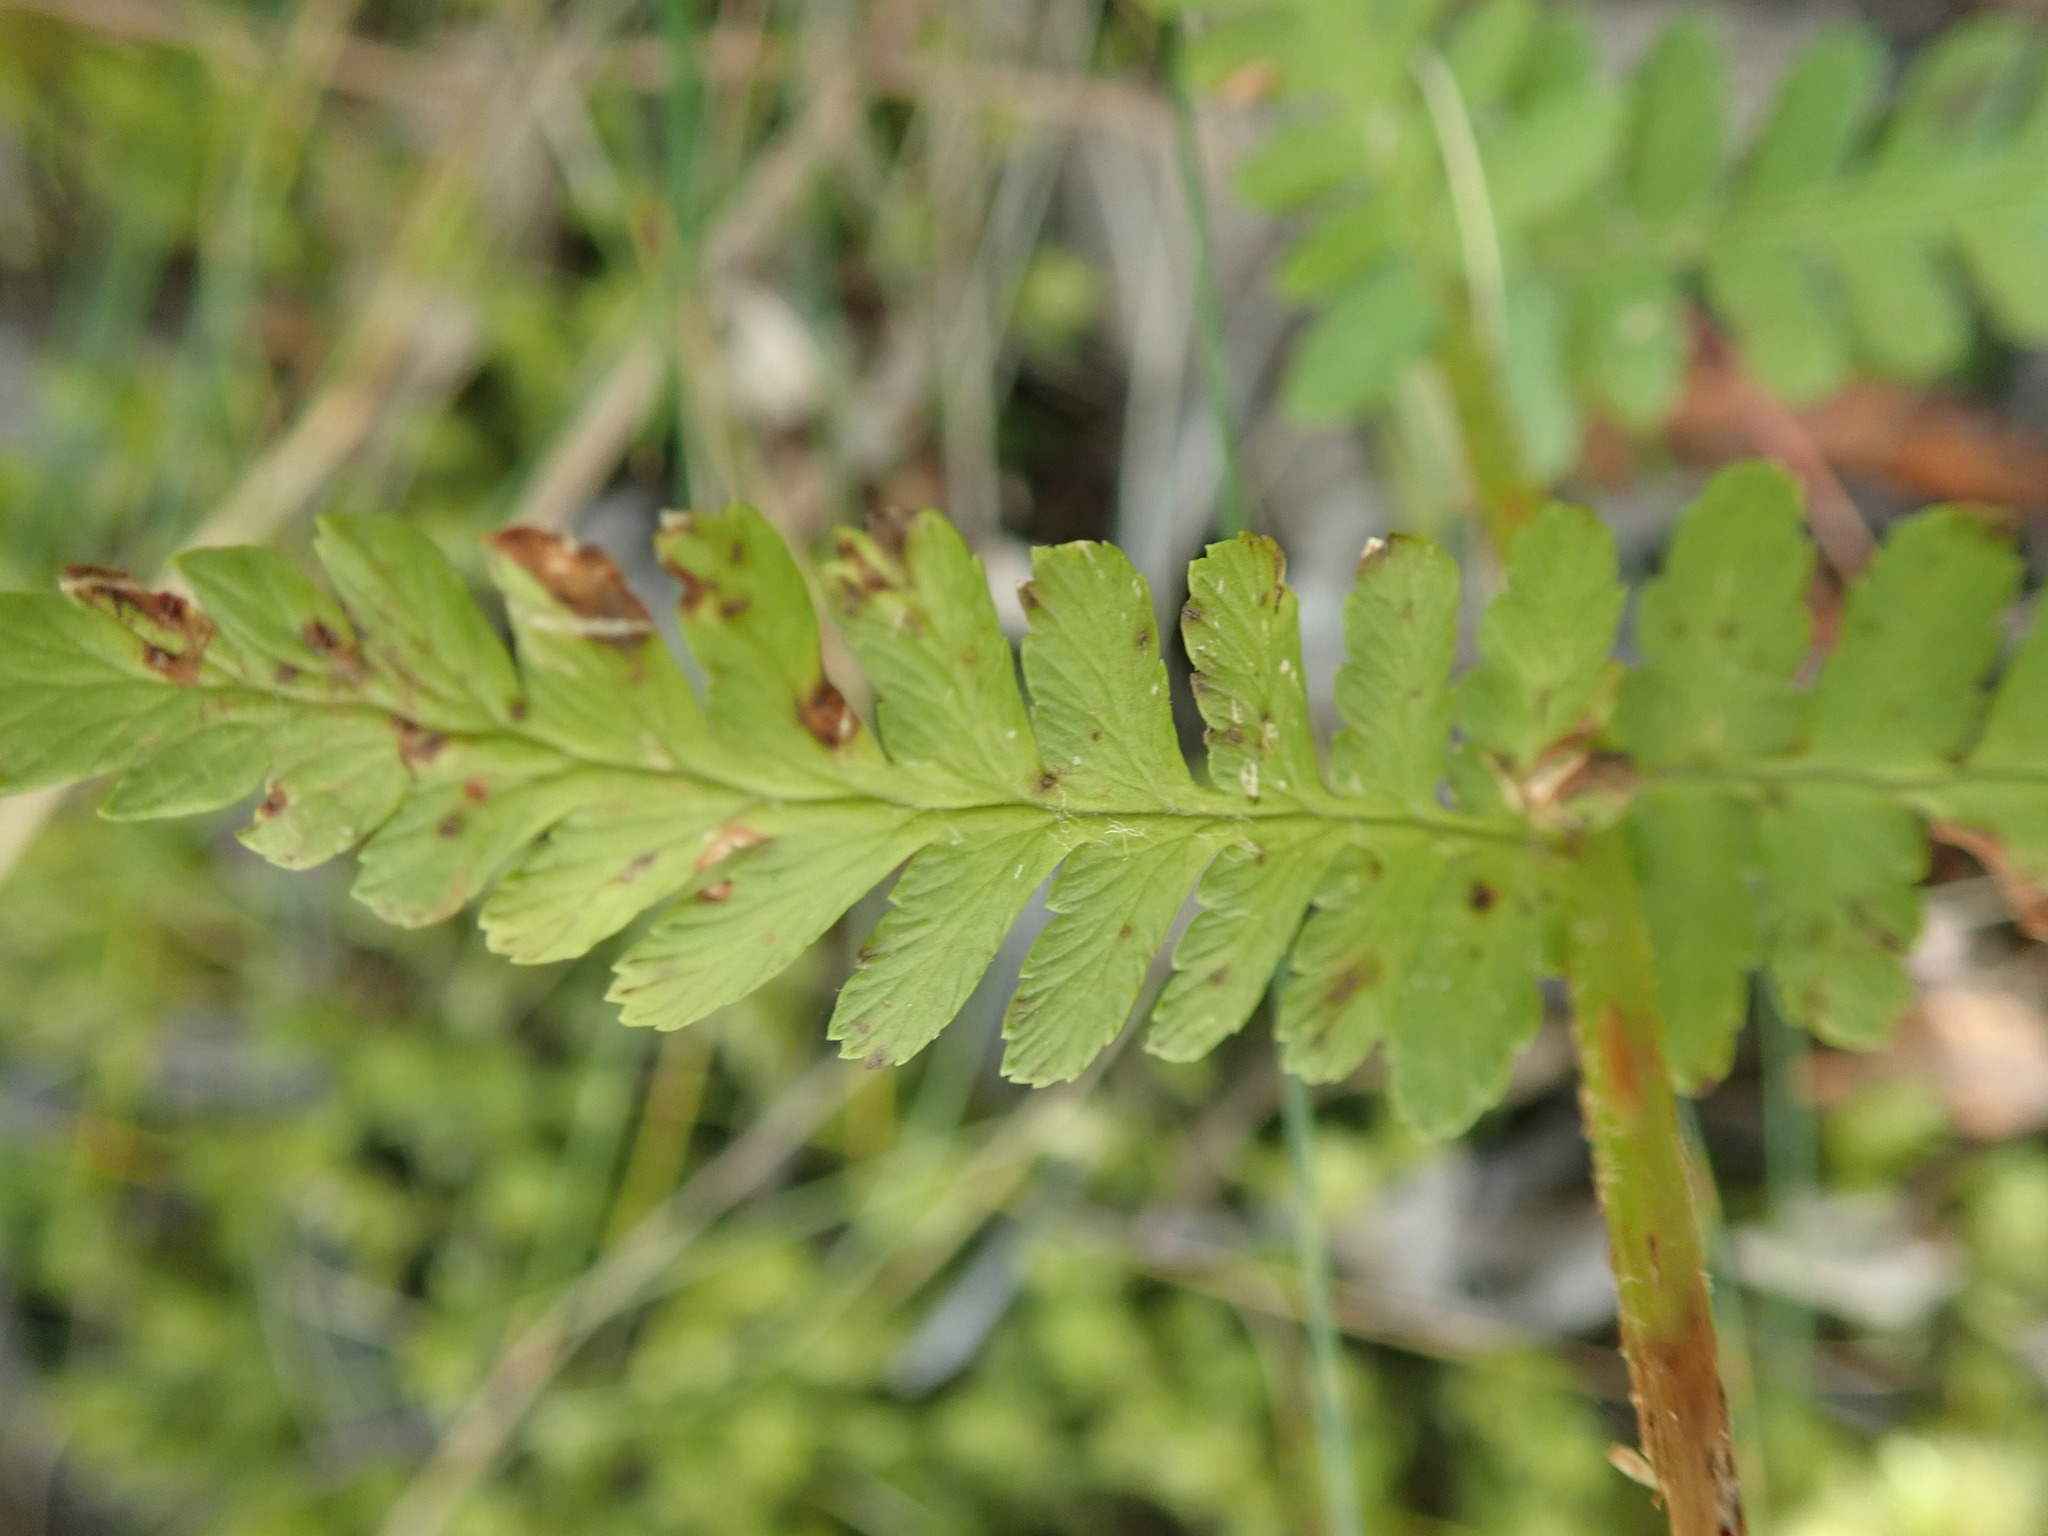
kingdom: Plantae
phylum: Tracheophyta
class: Polypodiopsida
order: Polypodiales
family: Dryopteridaceae
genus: Dryopteris
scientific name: Dryopteris filix-mas
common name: Male fern
